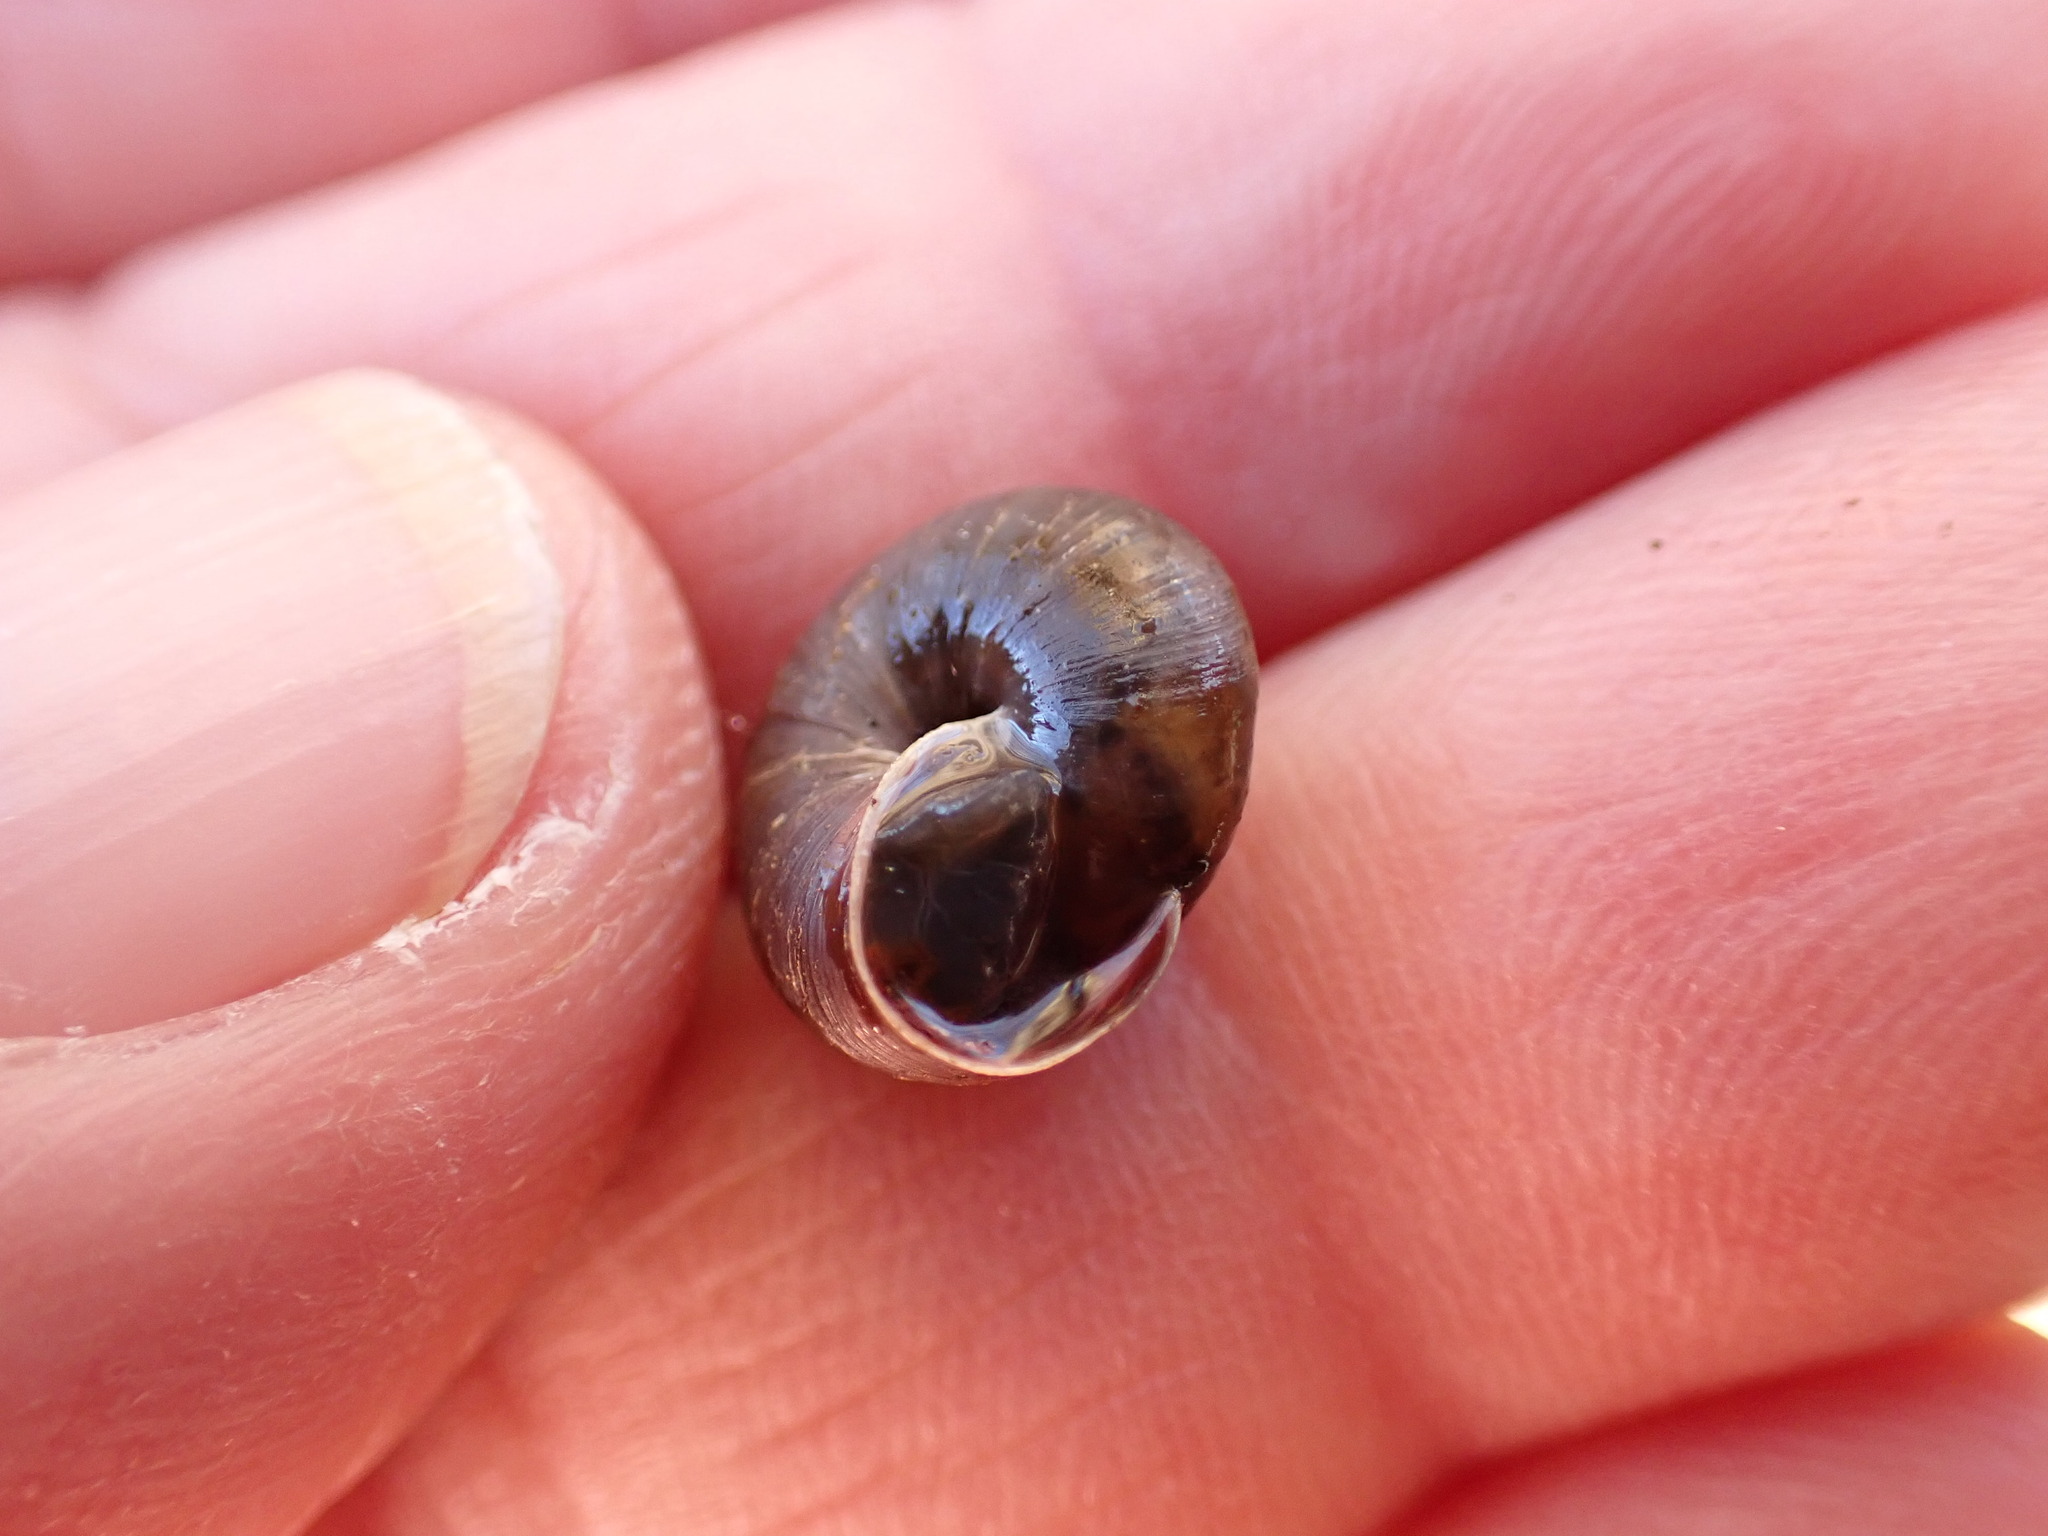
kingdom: Animalia
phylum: Mollusca
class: Gastropoda
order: Stylommatophora
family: Hygromiidae
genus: Trochulus
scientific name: Trochulus striolatus
